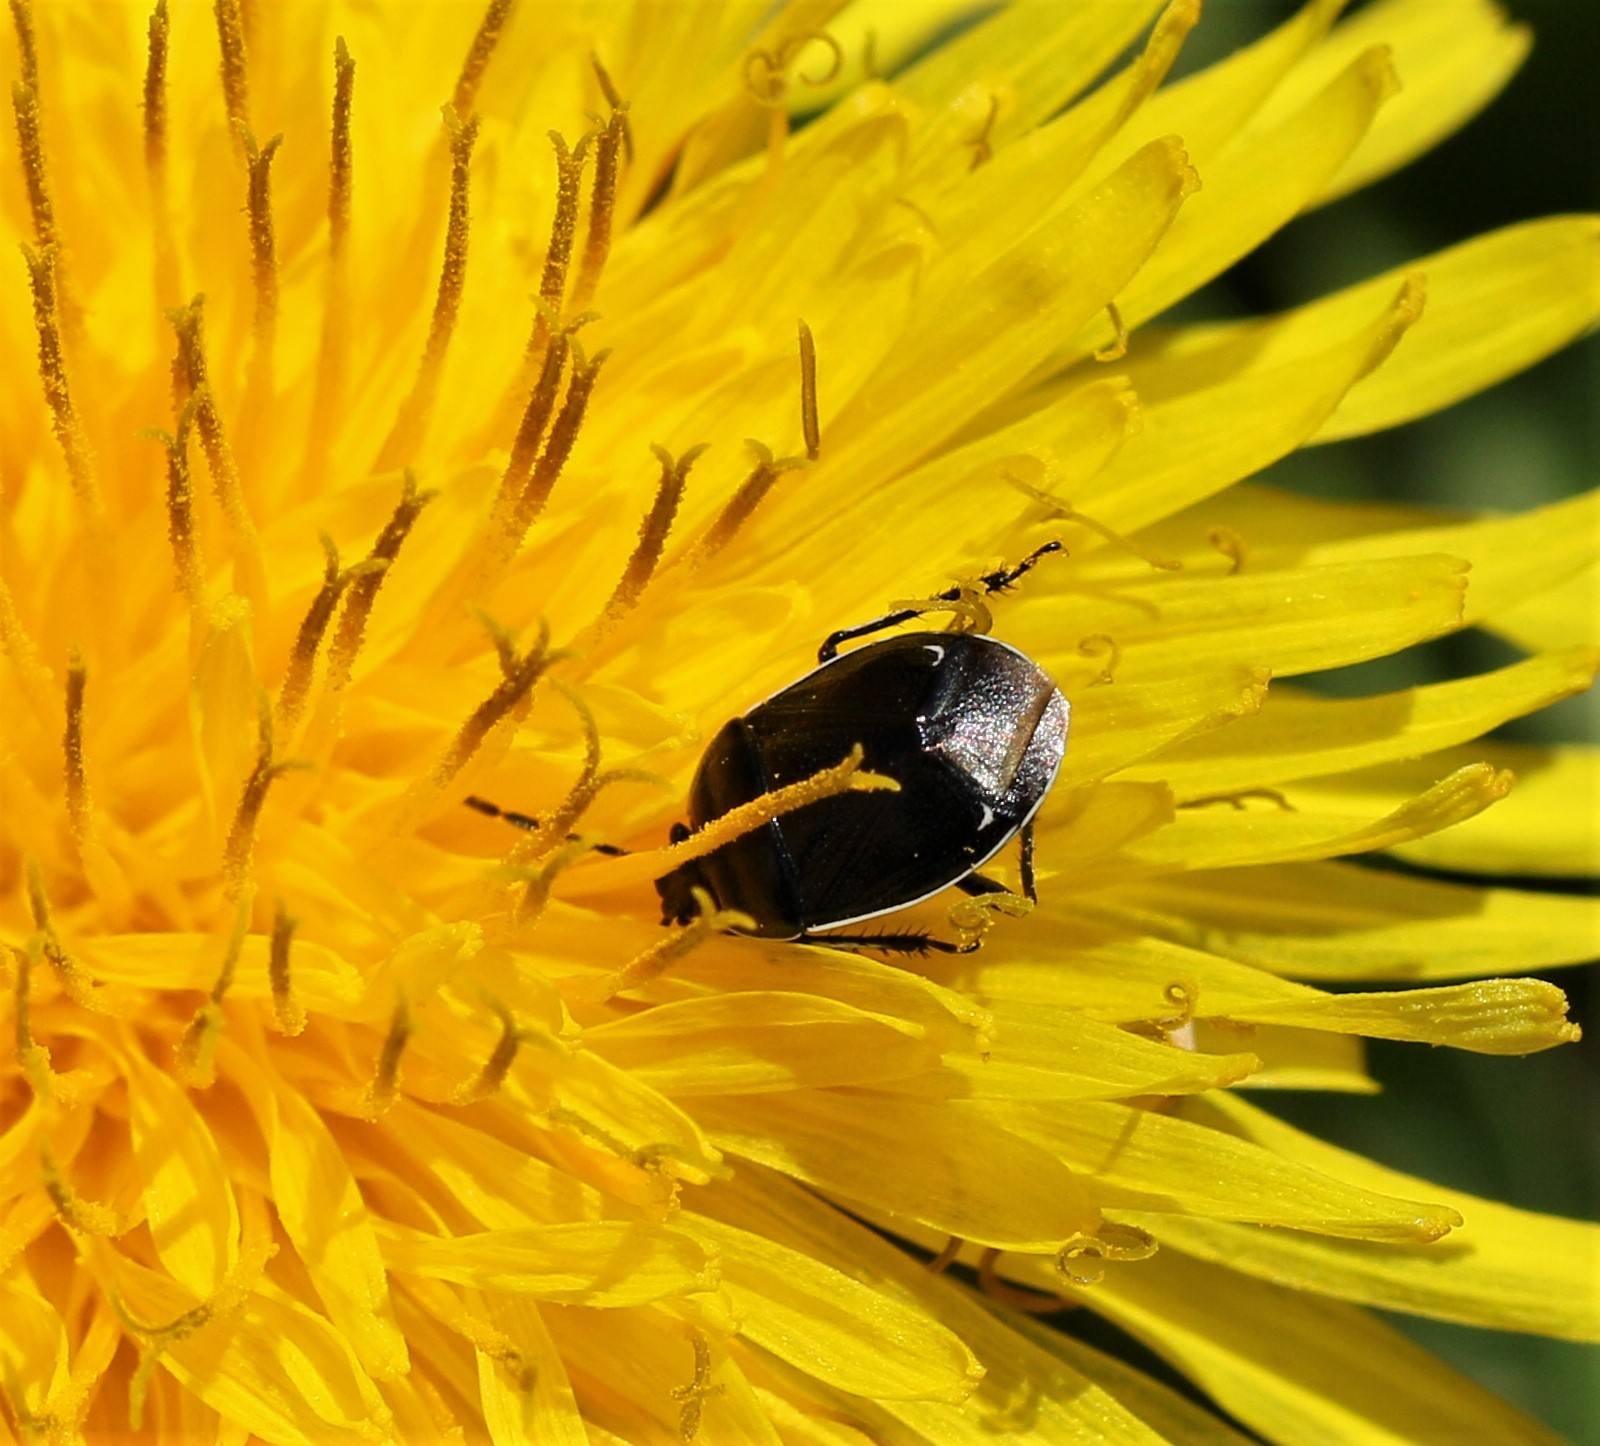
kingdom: Animalia
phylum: Arthropoda
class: Insecta
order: Hemiptera
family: Cydnidae
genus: Sehirus
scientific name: Sehirus cinctus
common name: White-margined burrower bug
